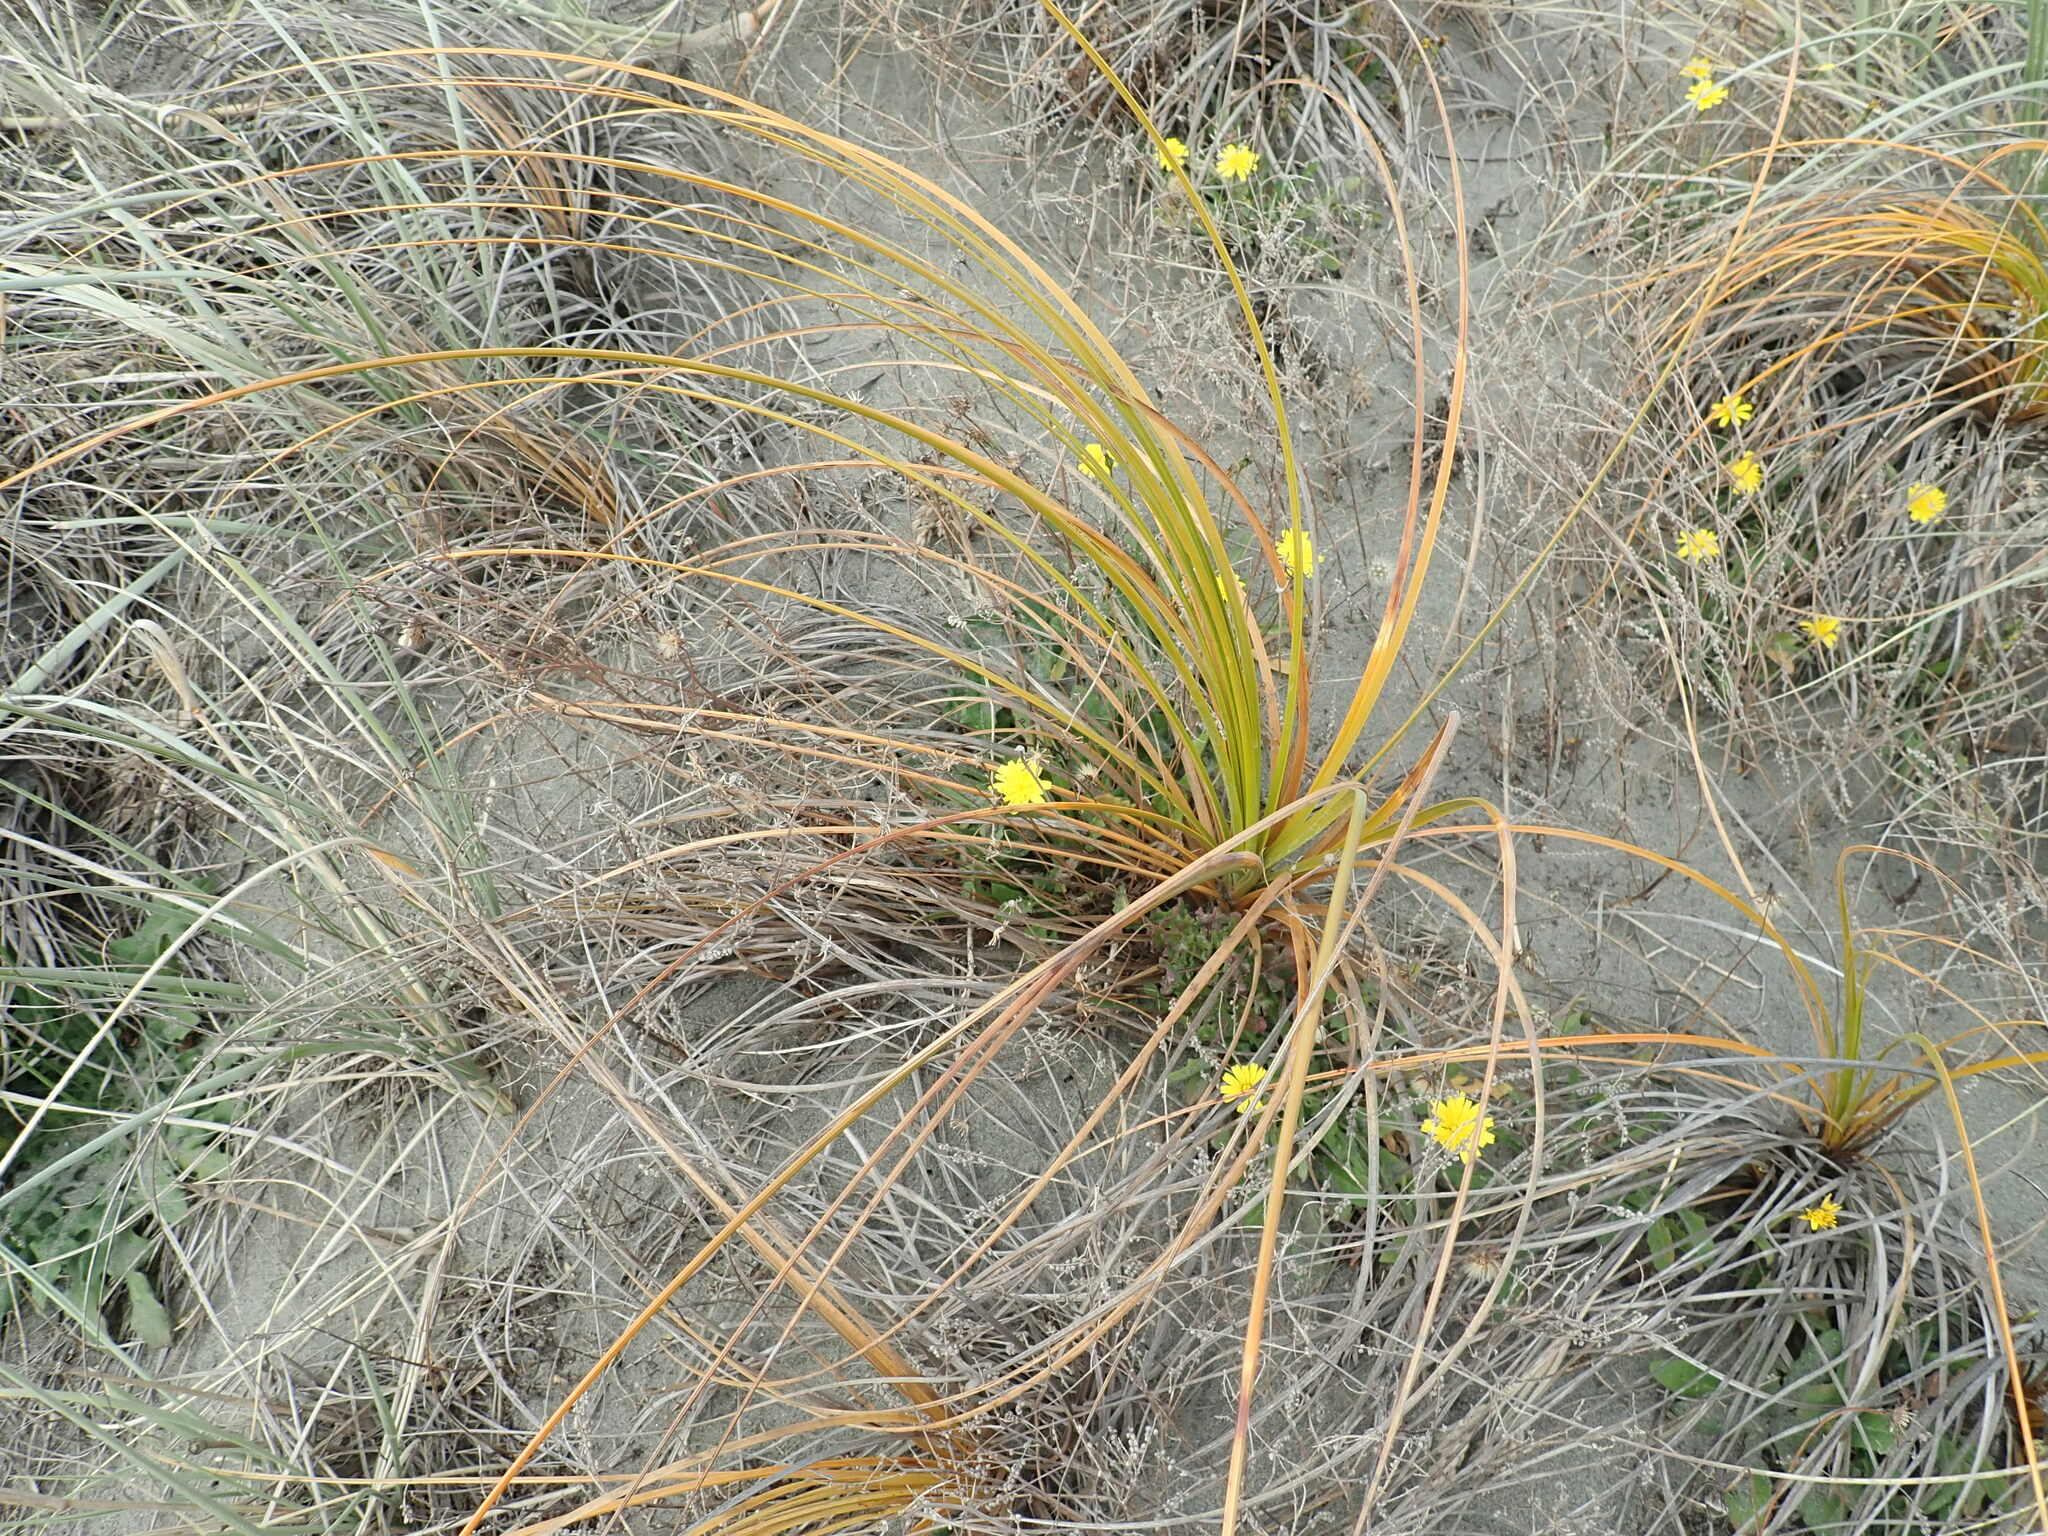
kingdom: Plantae
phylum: Tracheophyta
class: Liliopsida
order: Poales
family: Cyperaceae
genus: Ficinia
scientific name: Ficinia spiralis
